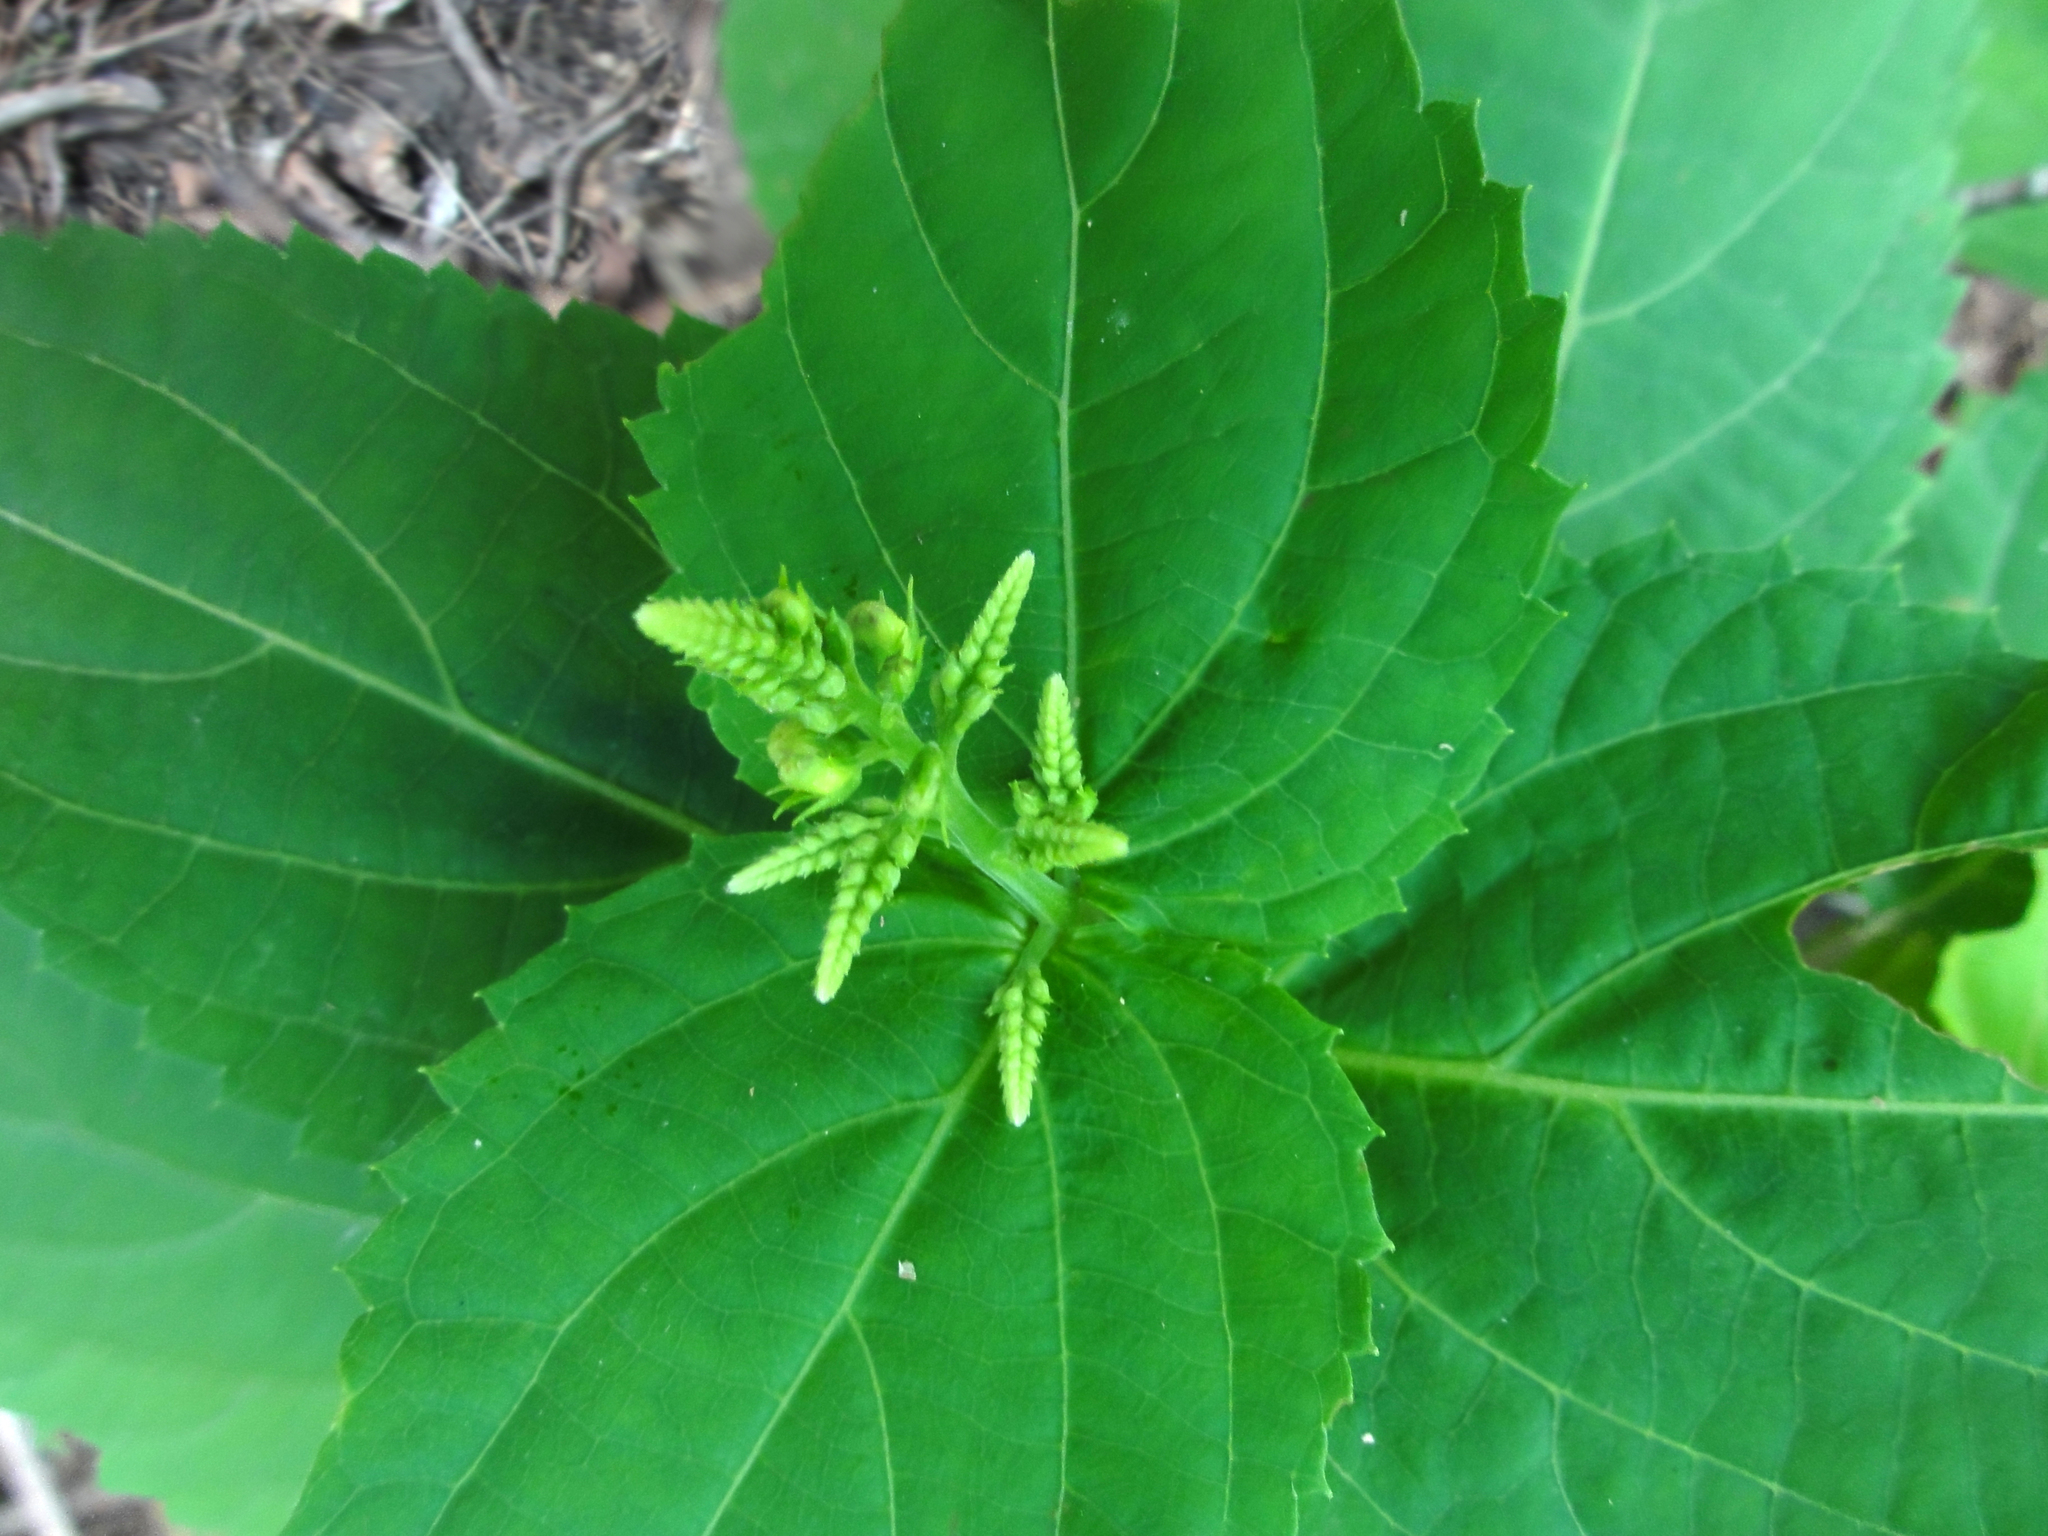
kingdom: Plantae
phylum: Tracheophyta
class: Magnoliopsida
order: Lamiales
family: Lamiaceae
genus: Collinsonia
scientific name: Collinsonia canadensis
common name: Northern horsebalm
